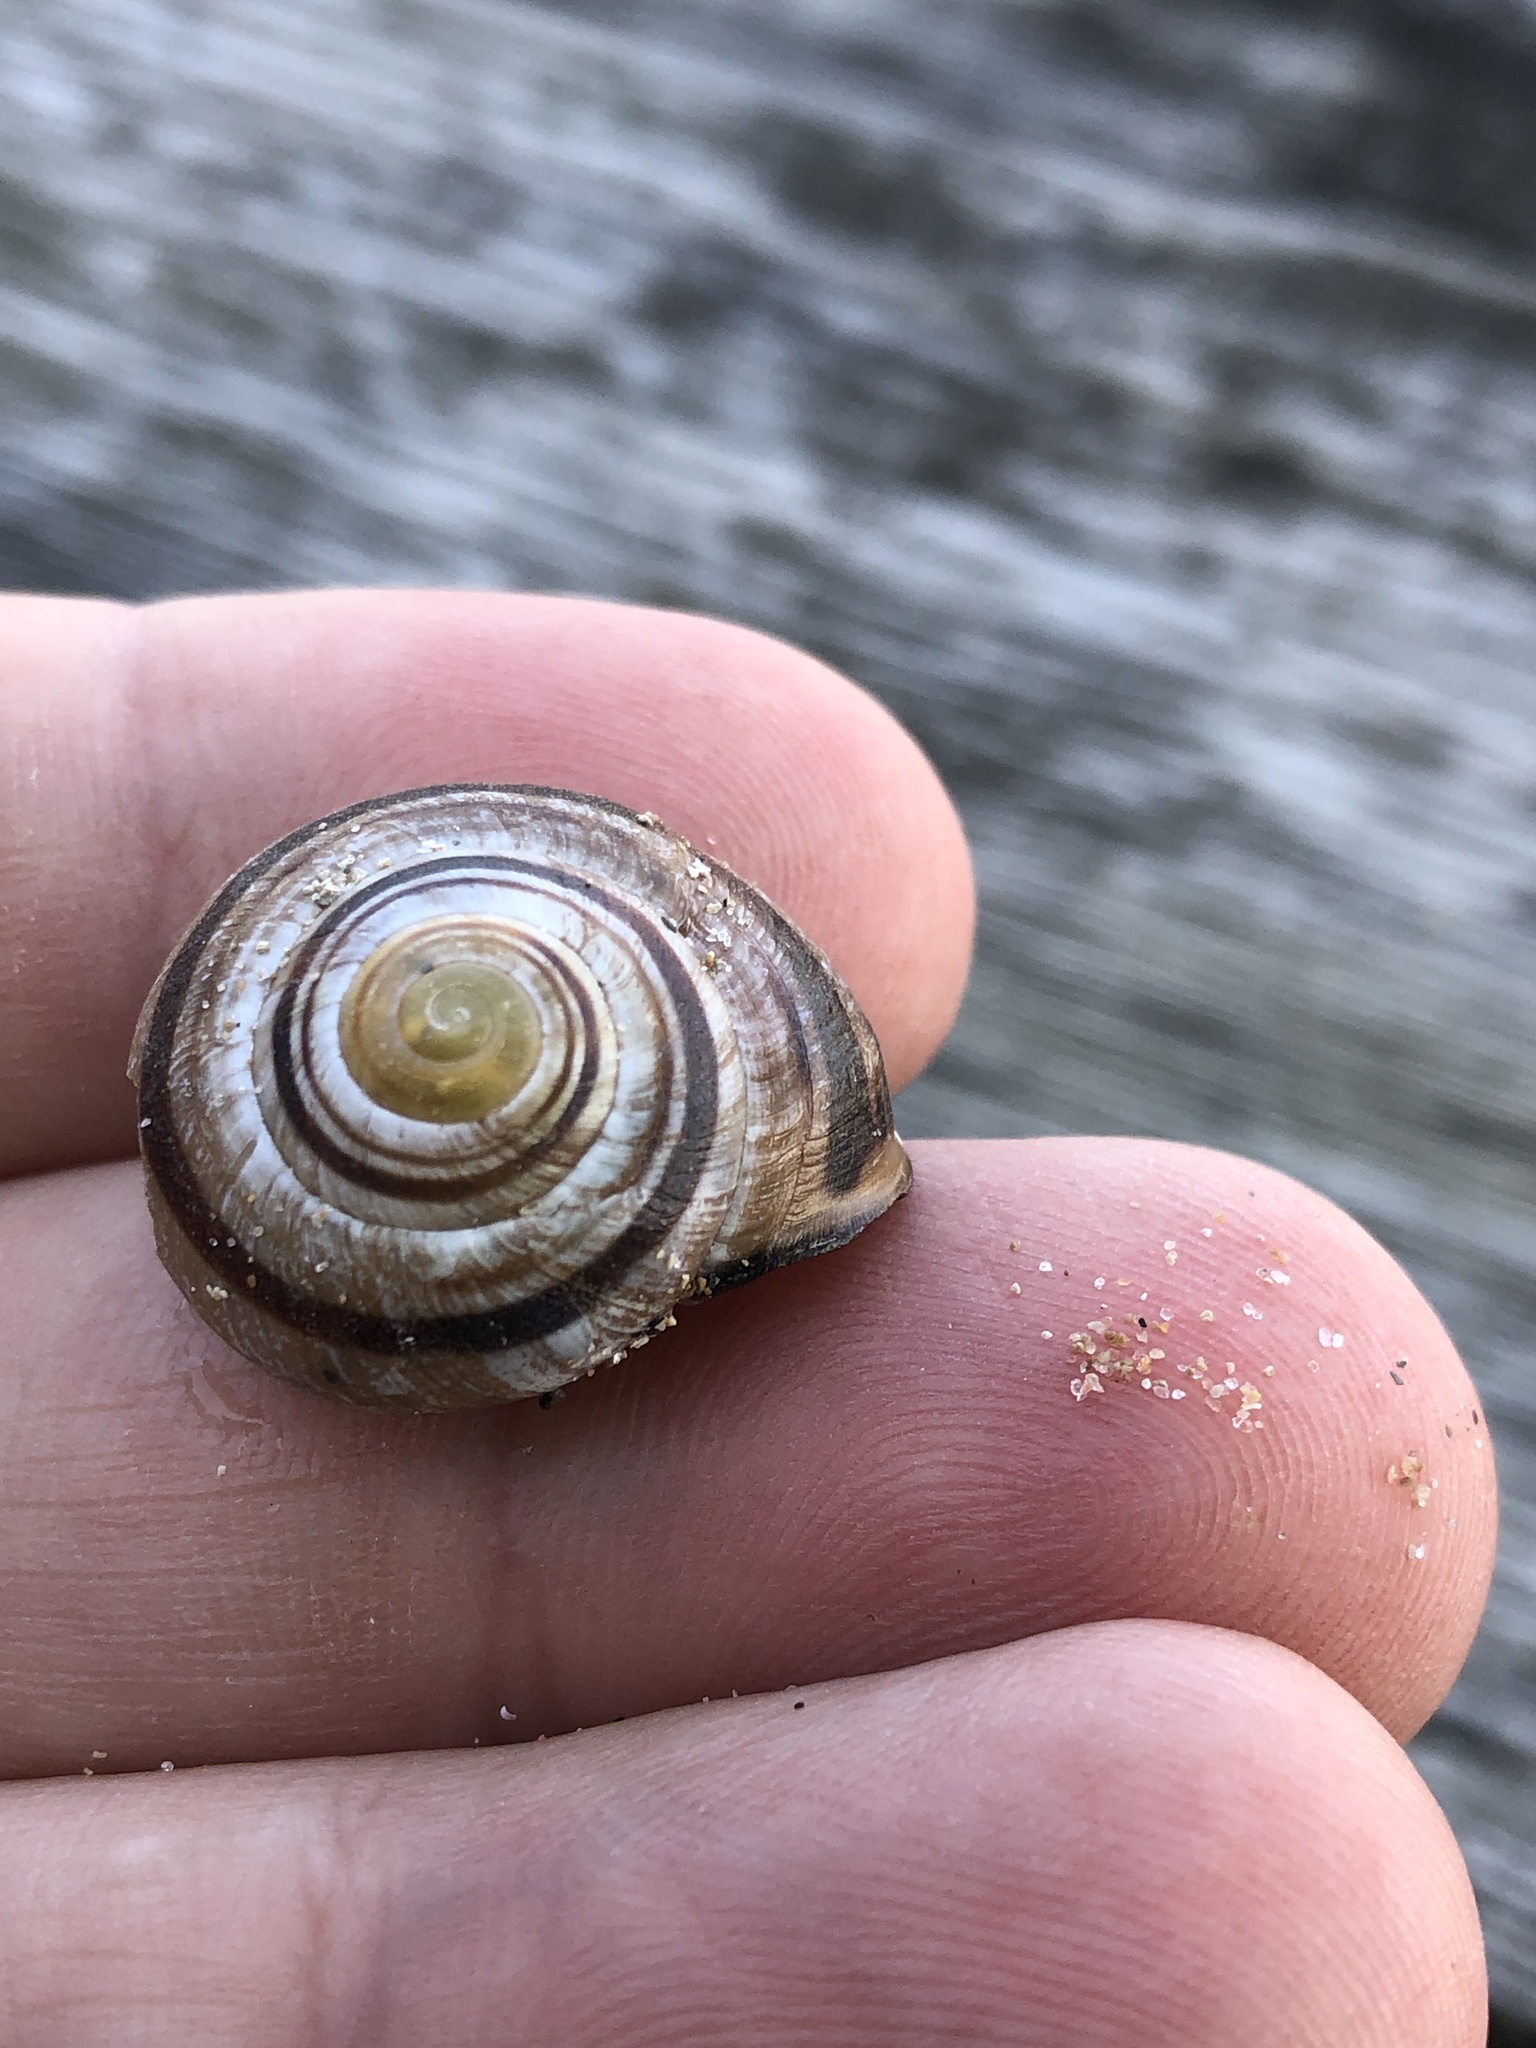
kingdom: Animalia
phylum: Mollusca
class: Gastropoda
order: Stylommatophora
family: Helicidae
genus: Cepaea
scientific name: Cepaea nemoralis
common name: Grovesnail
